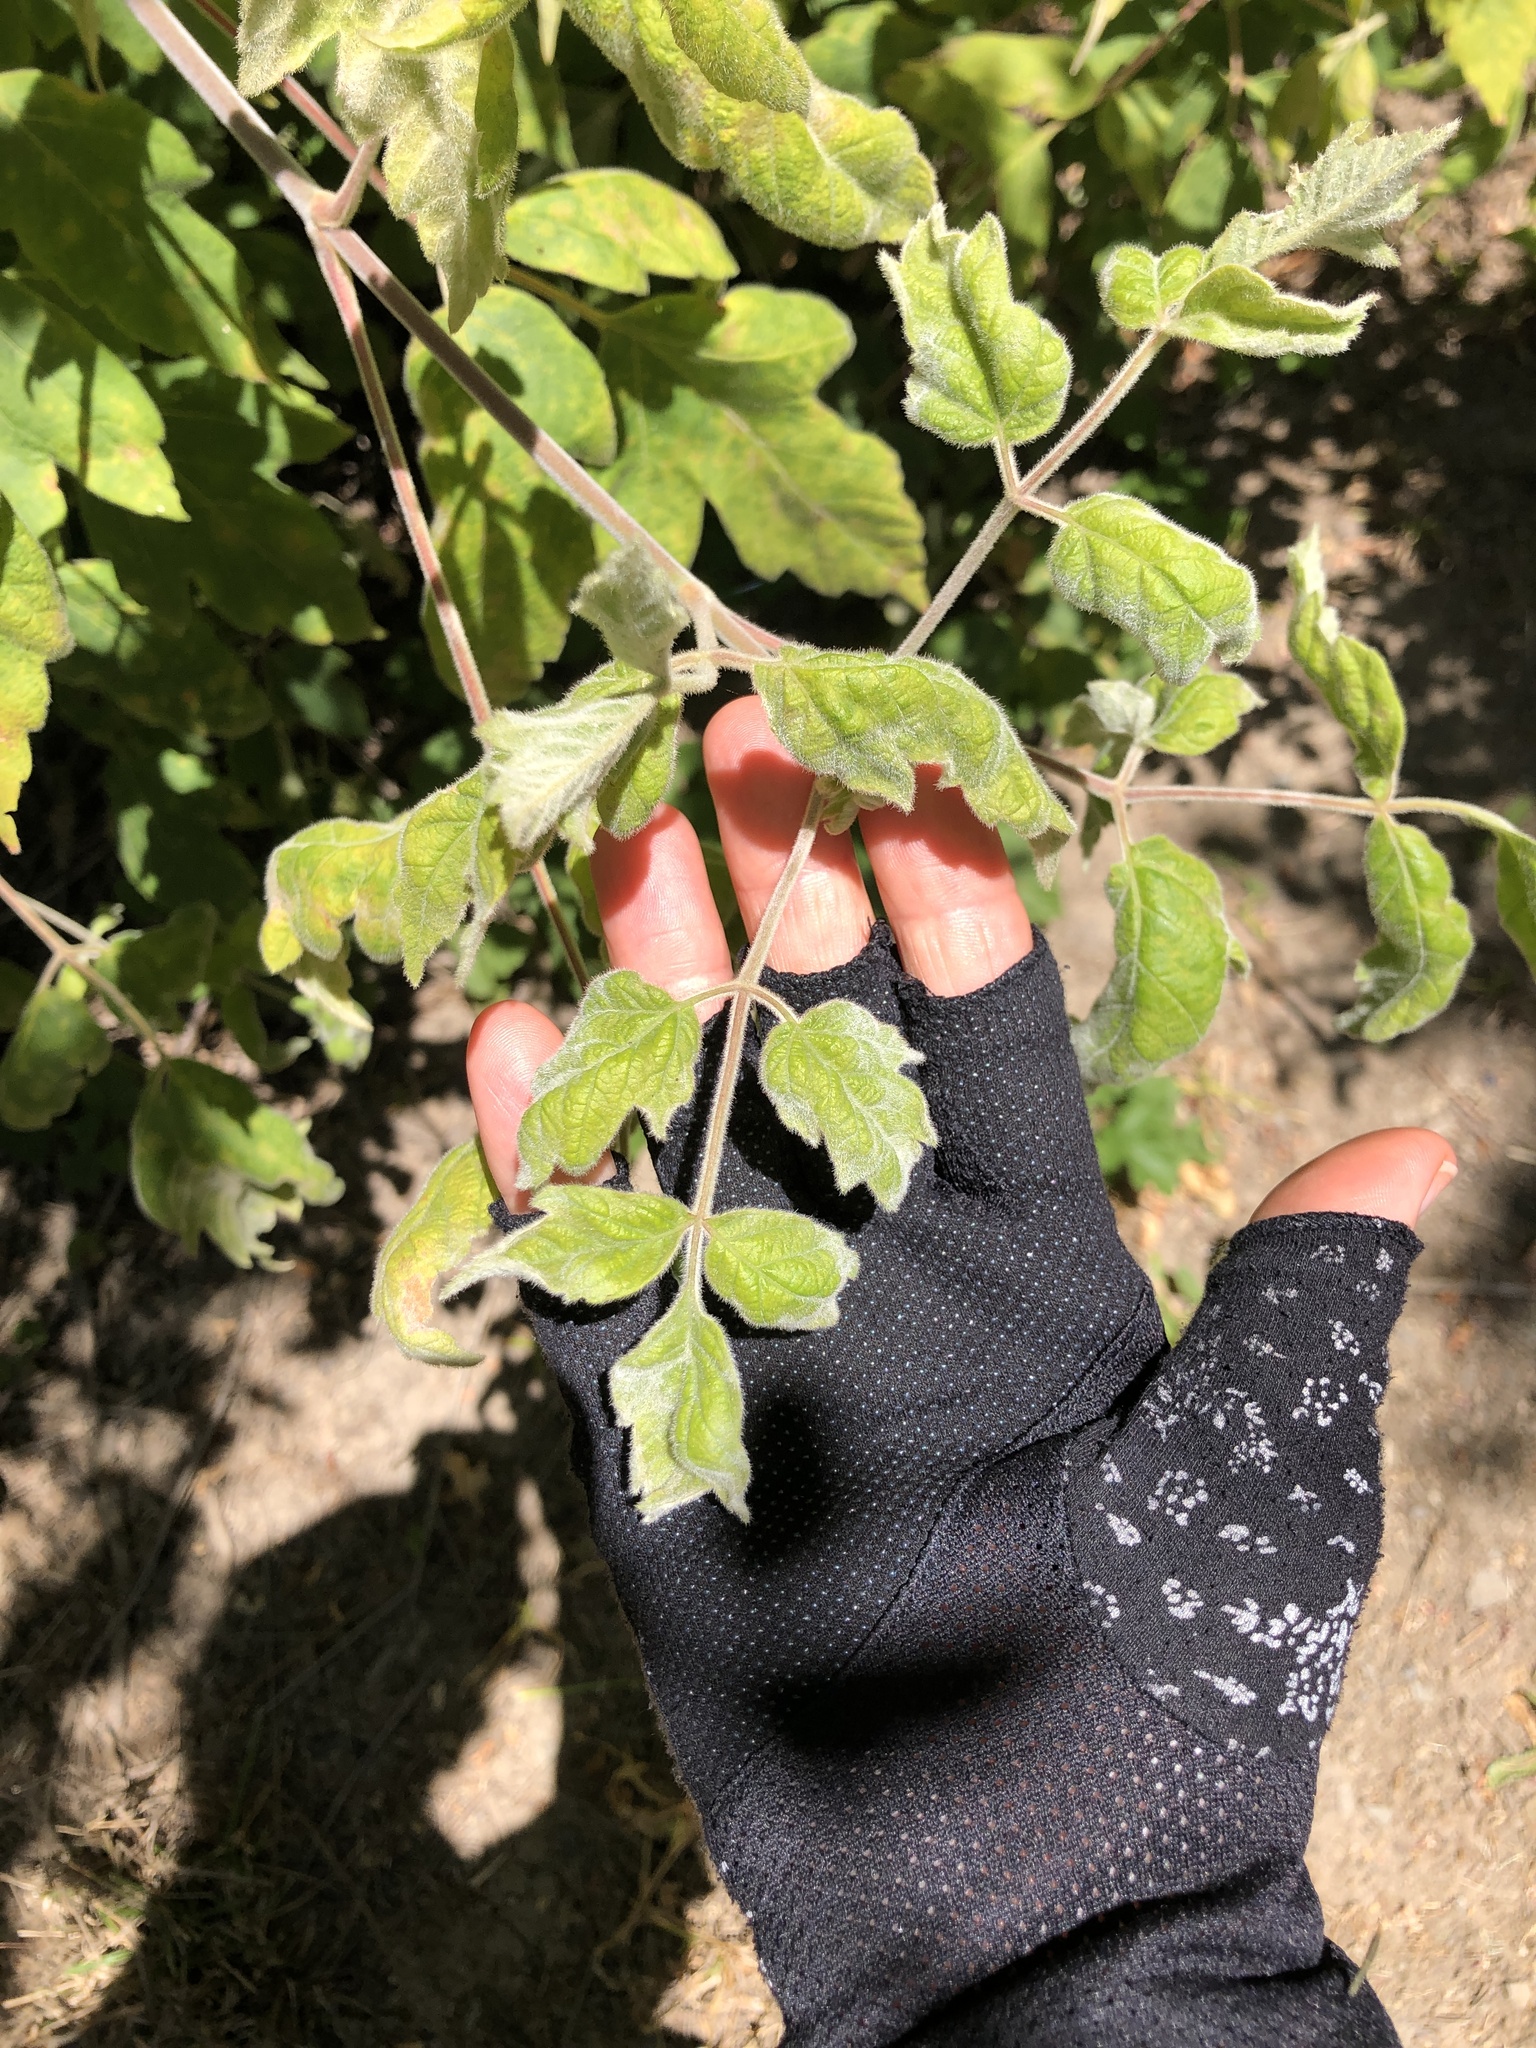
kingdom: Plantae
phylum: Tracheophyta
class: Magnoliopsida
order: Sapindales
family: Sapindaceae
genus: Acer
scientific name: Acer negundo
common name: Ashleaf maple
